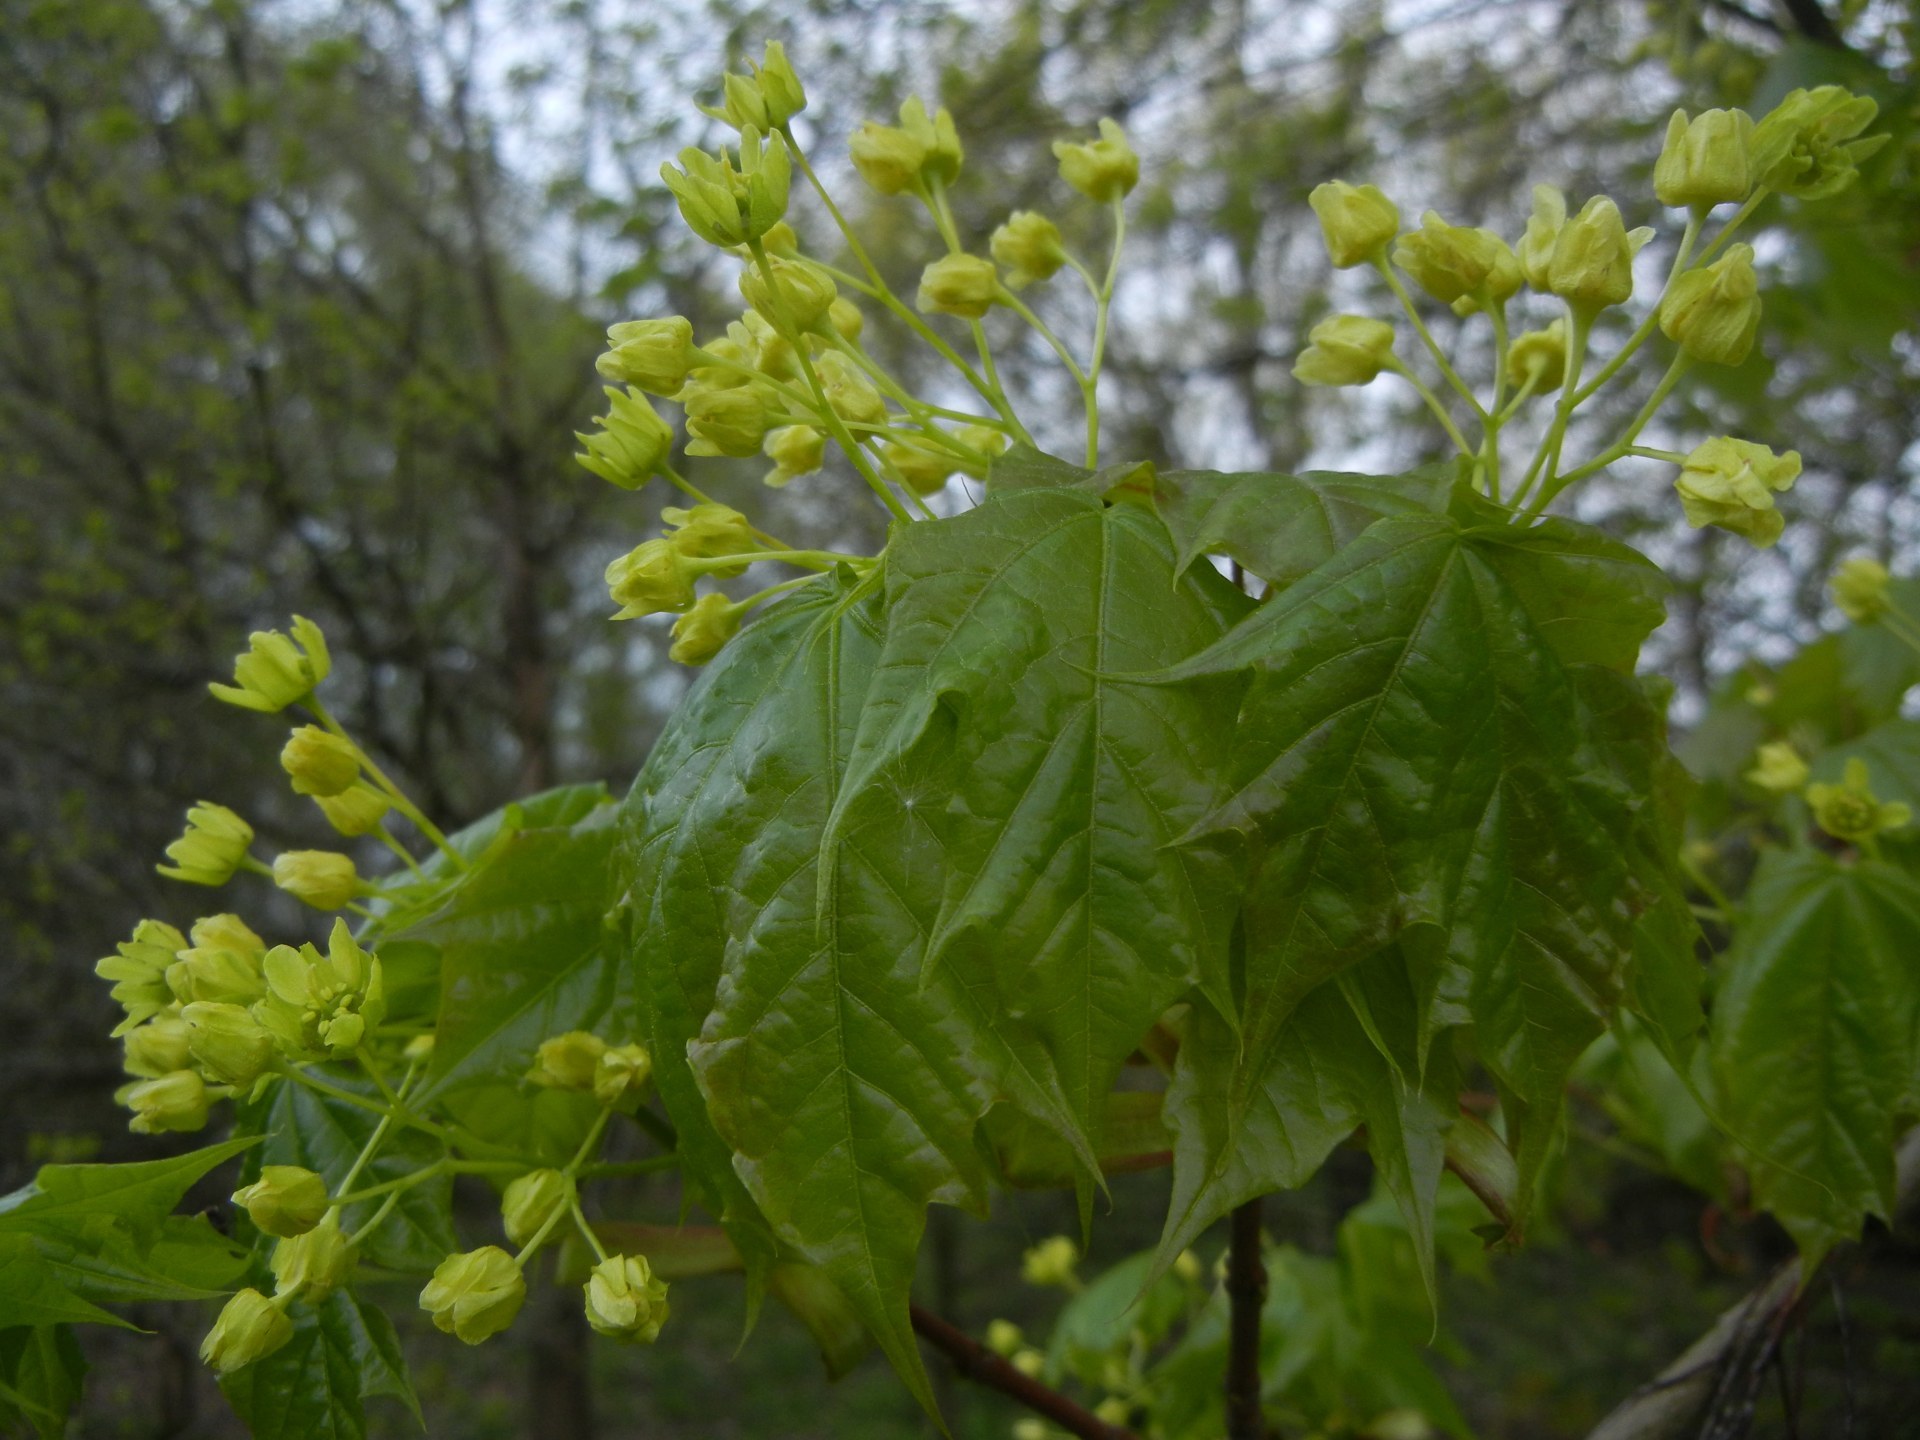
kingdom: Plantae
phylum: Tracheophyta
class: Magnoliopsida
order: Sapindales
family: Sapindaceae
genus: Acer
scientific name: Acer platanoides
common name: Norway maple
